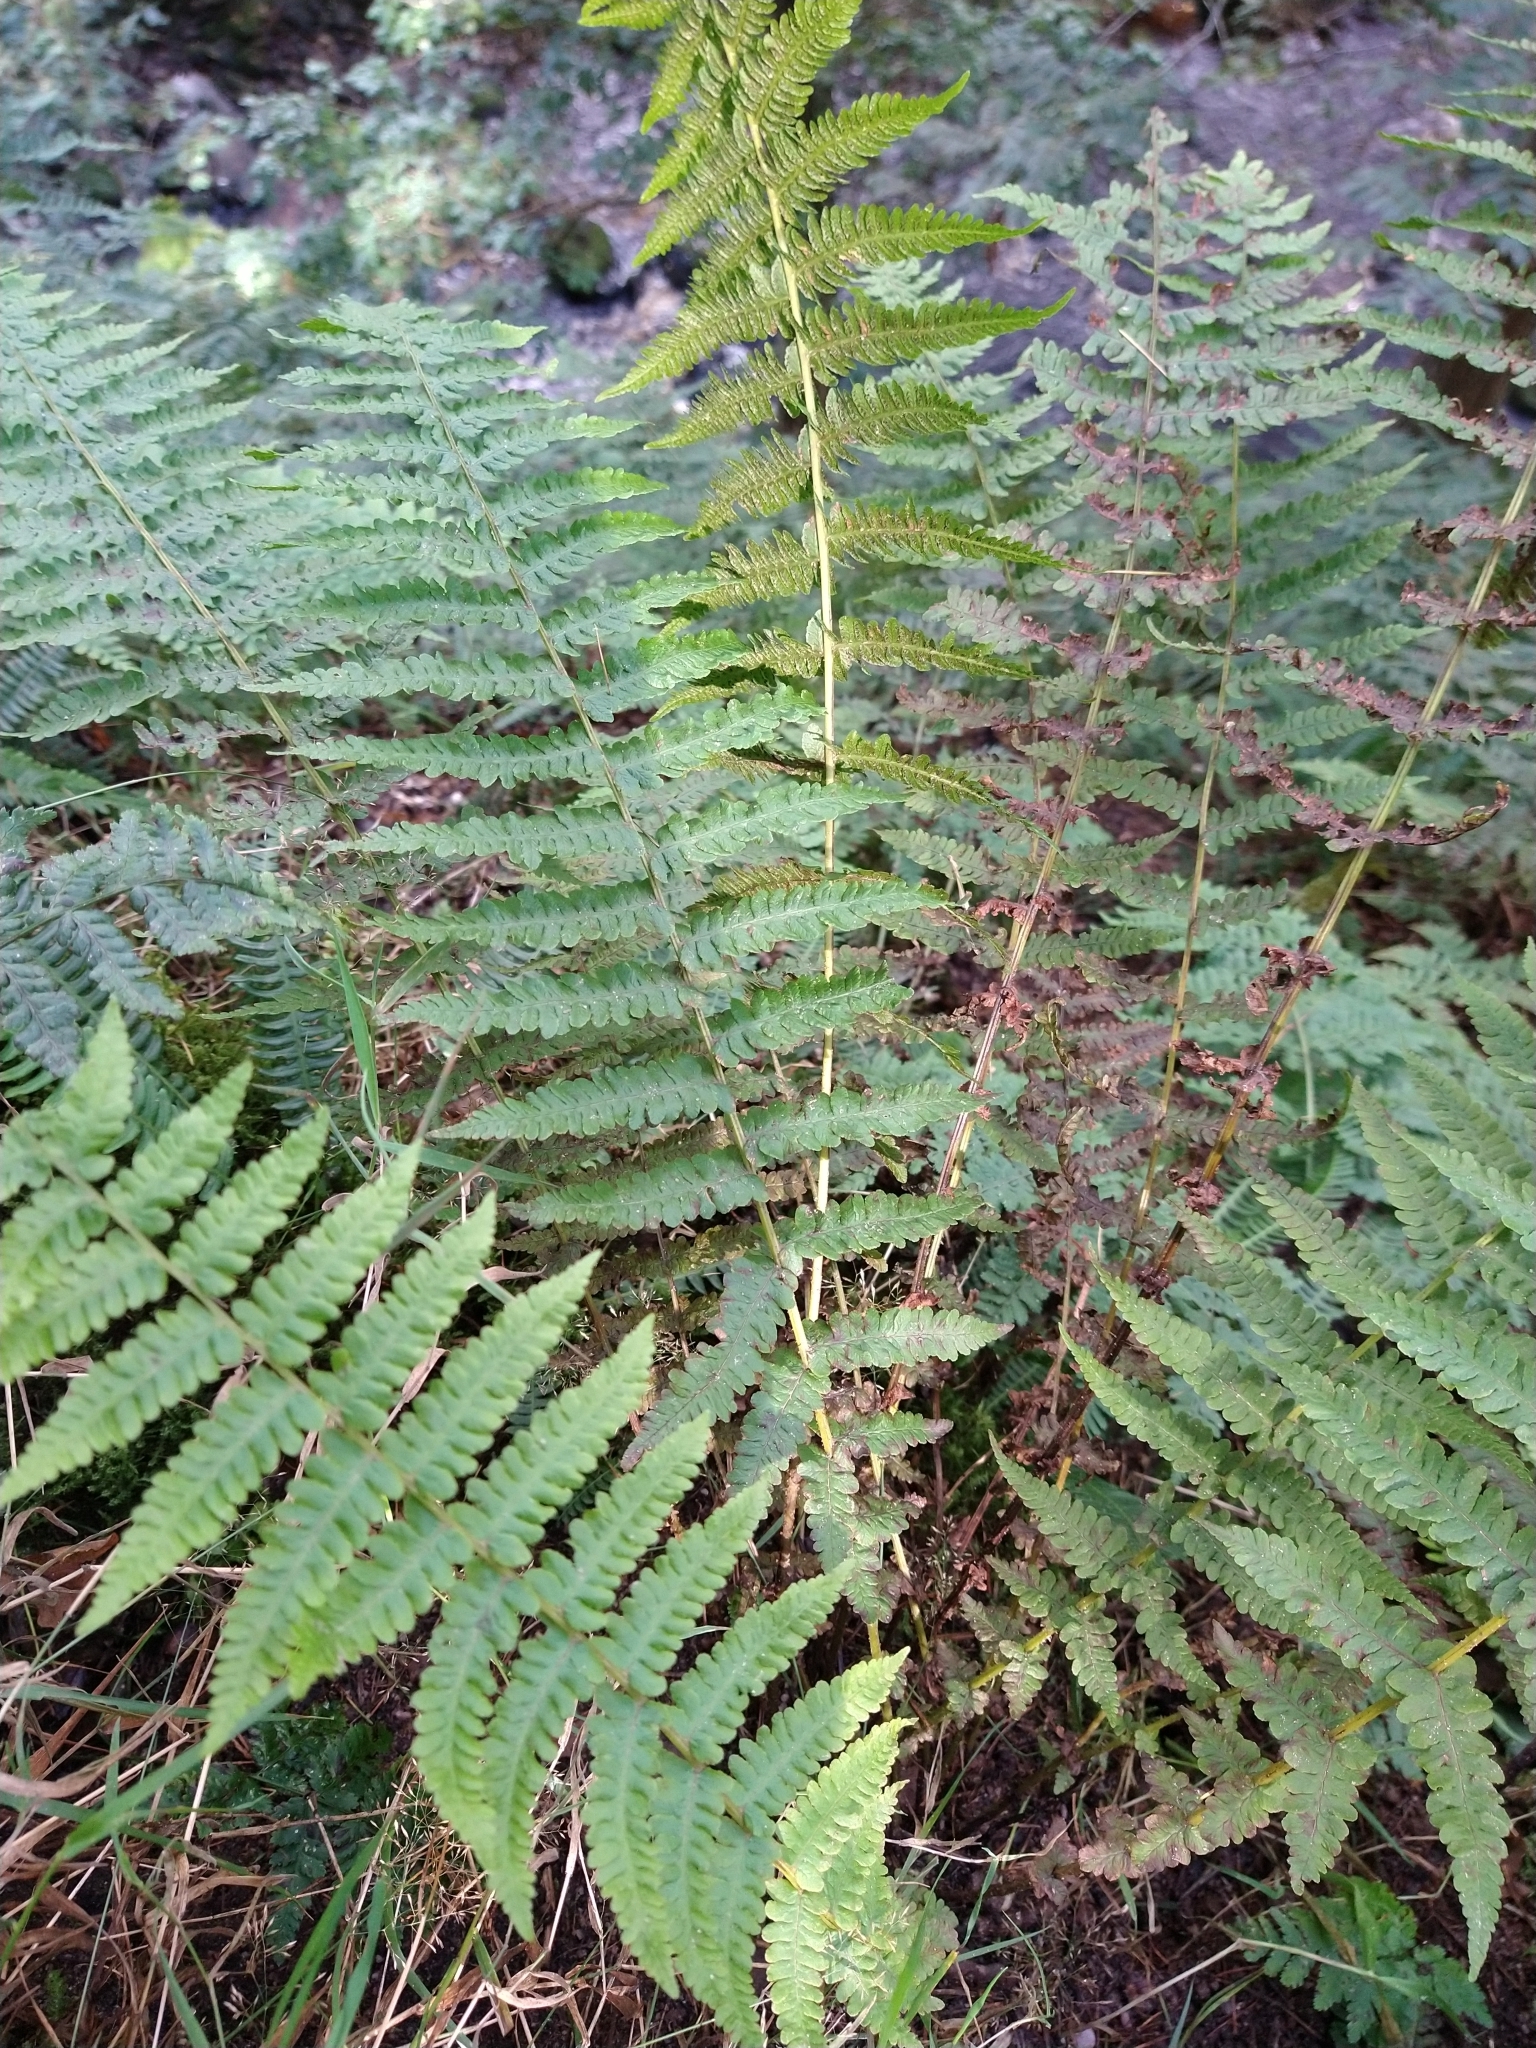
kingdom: Plantae
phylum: Tracheophyta
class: Polypodiopsida
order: Polypodiales
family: Thelypteridaceae
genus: Oreopteris
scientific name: Oreopteris limbosperma
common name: Lemon-scented fern
